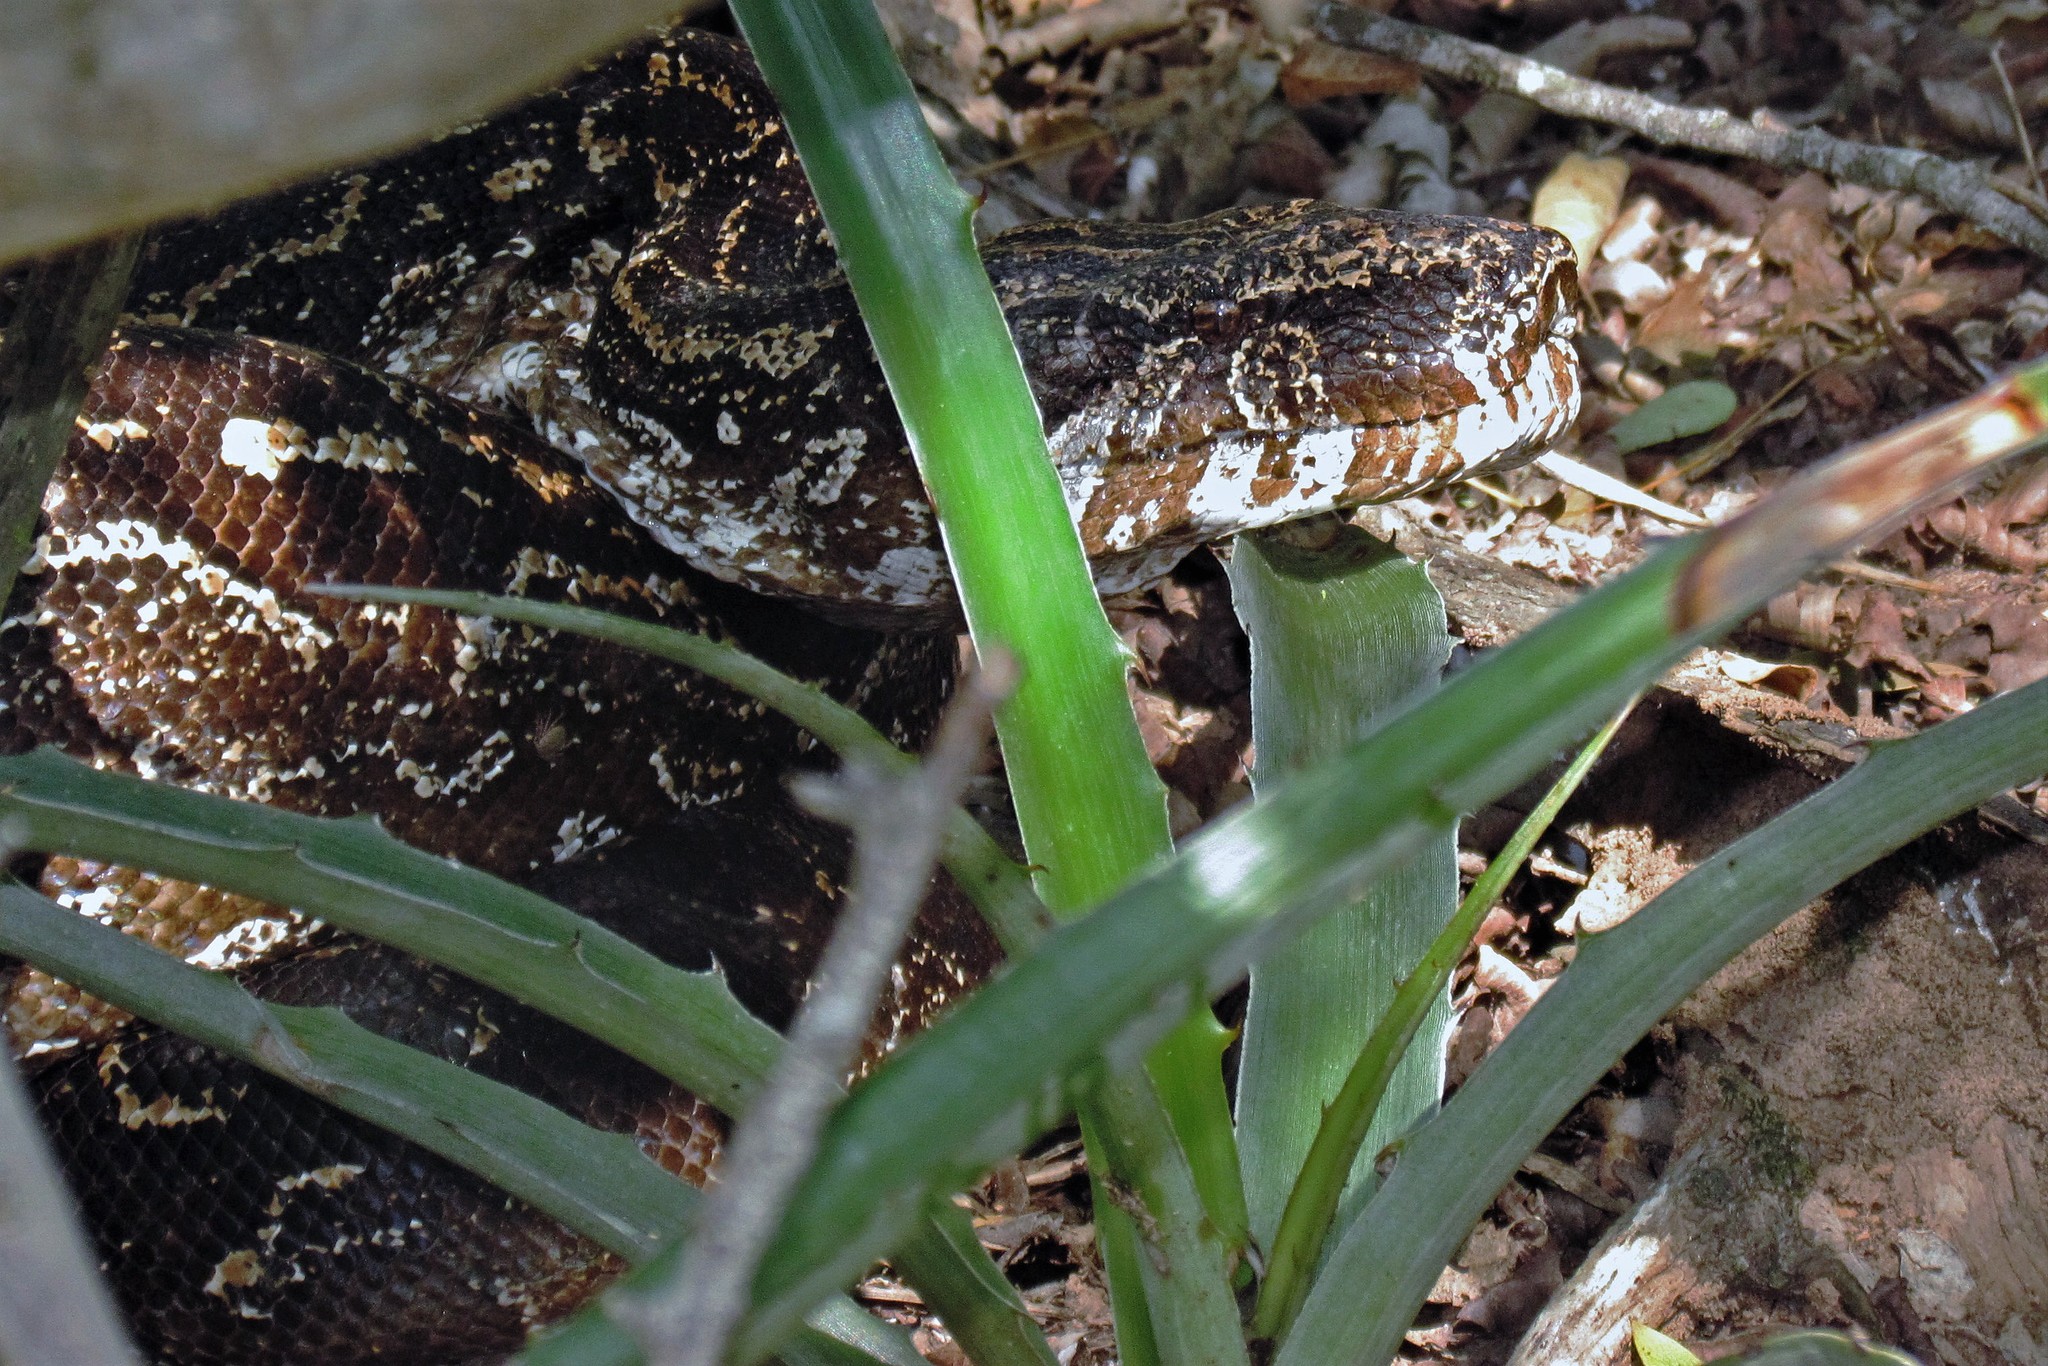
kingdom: Animalia
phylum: Chordata
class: Squamata
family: Boidae
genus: Boa
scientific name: Boa constrictor
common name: Boa constrictor
